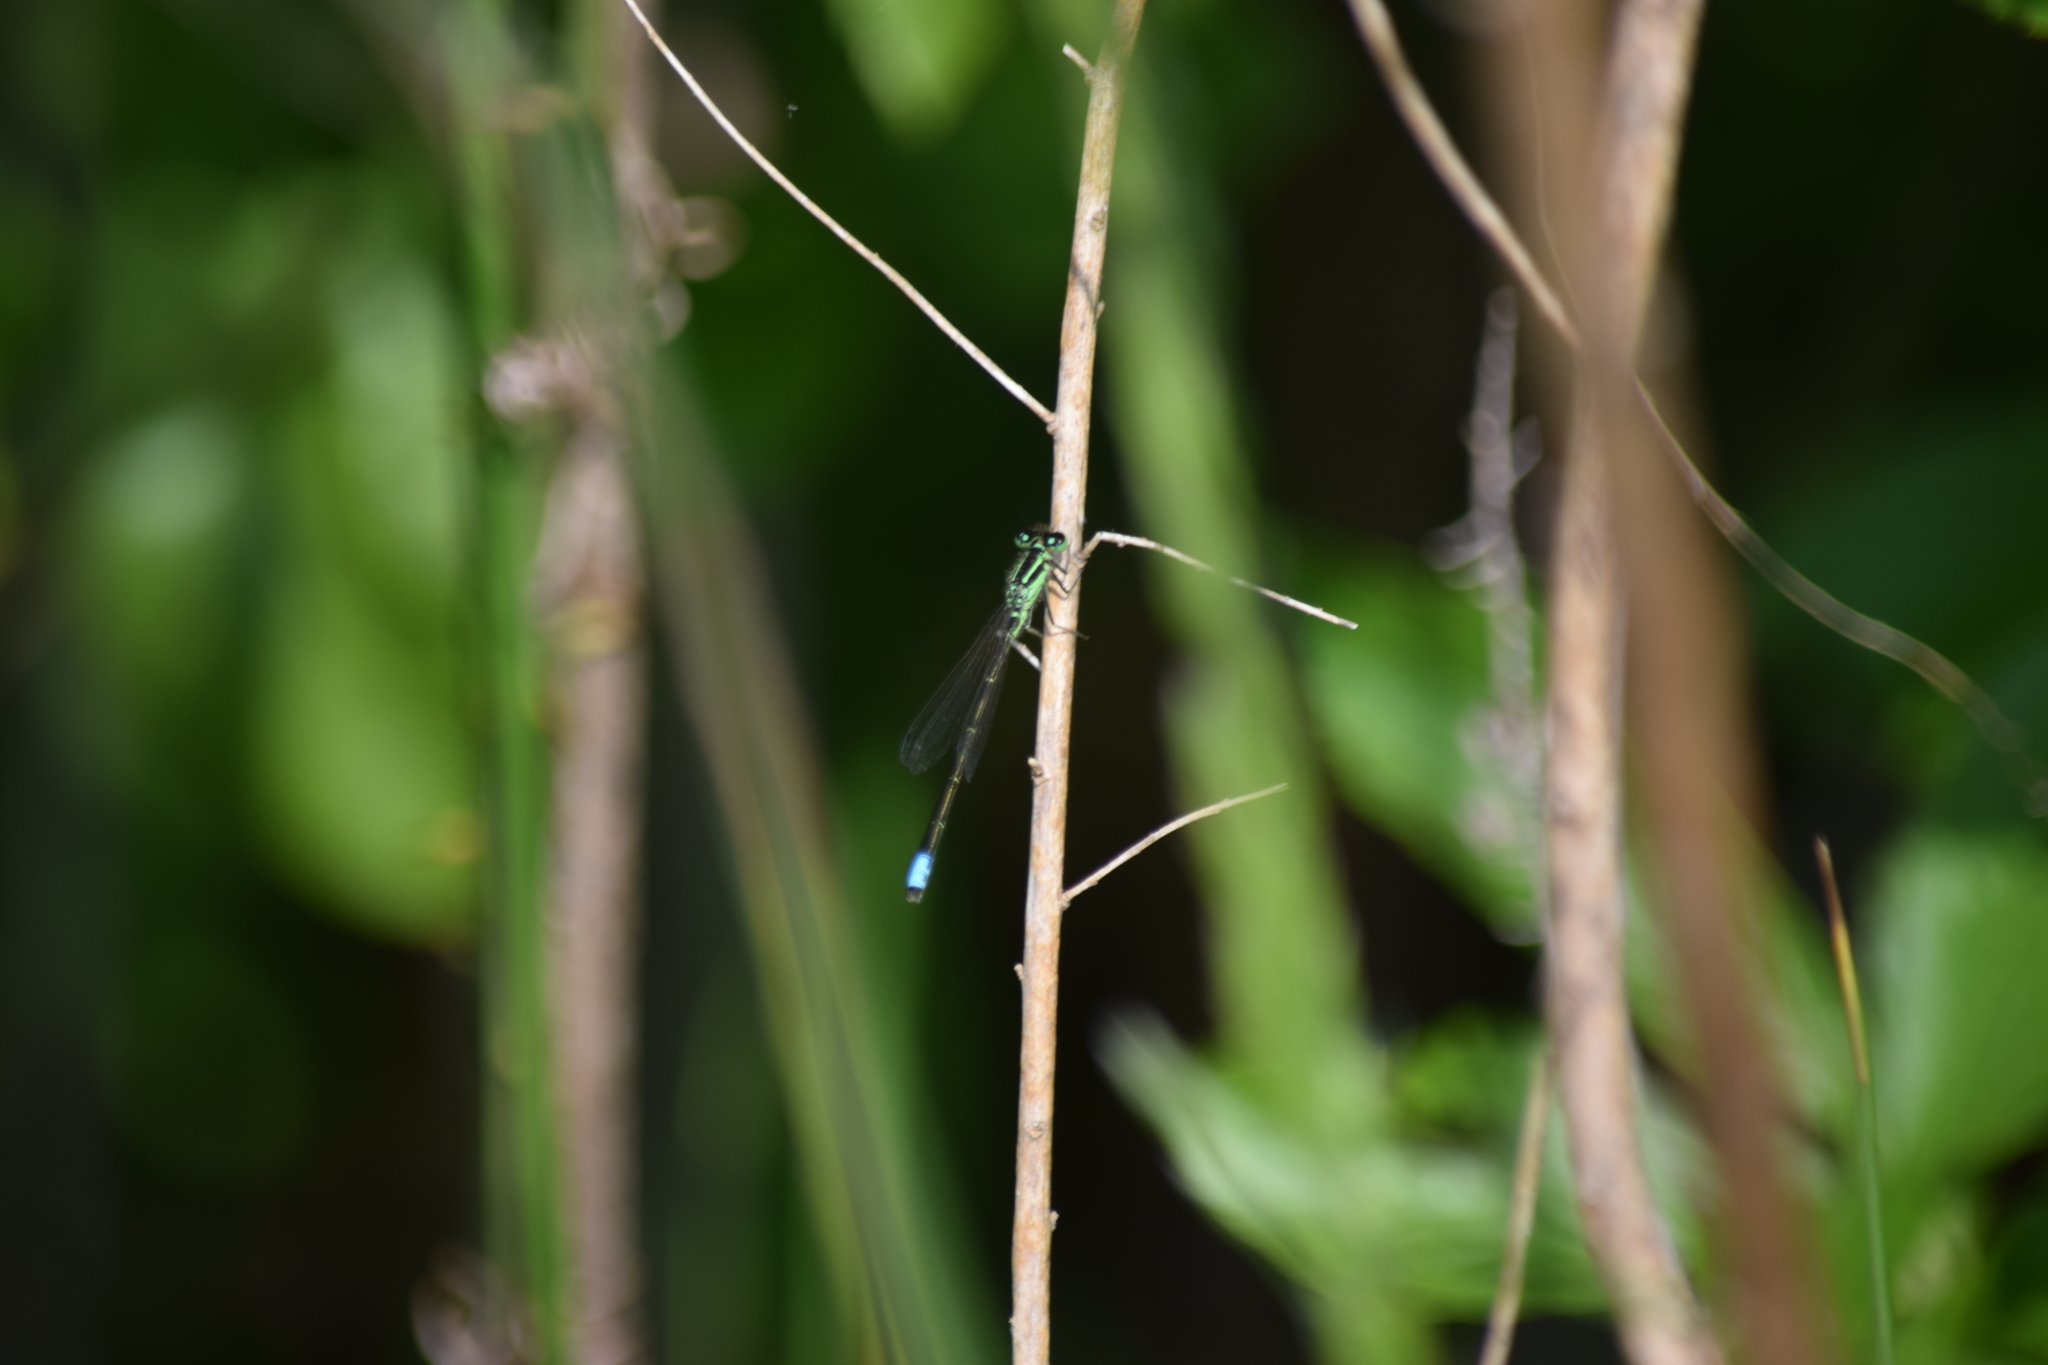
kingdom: Animalia
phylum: Arthropoda
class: Insecta
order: Odonata
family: Coenagrionidae
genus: Ischnura
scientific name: Ischnura verticalis
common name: Eastern forktail
